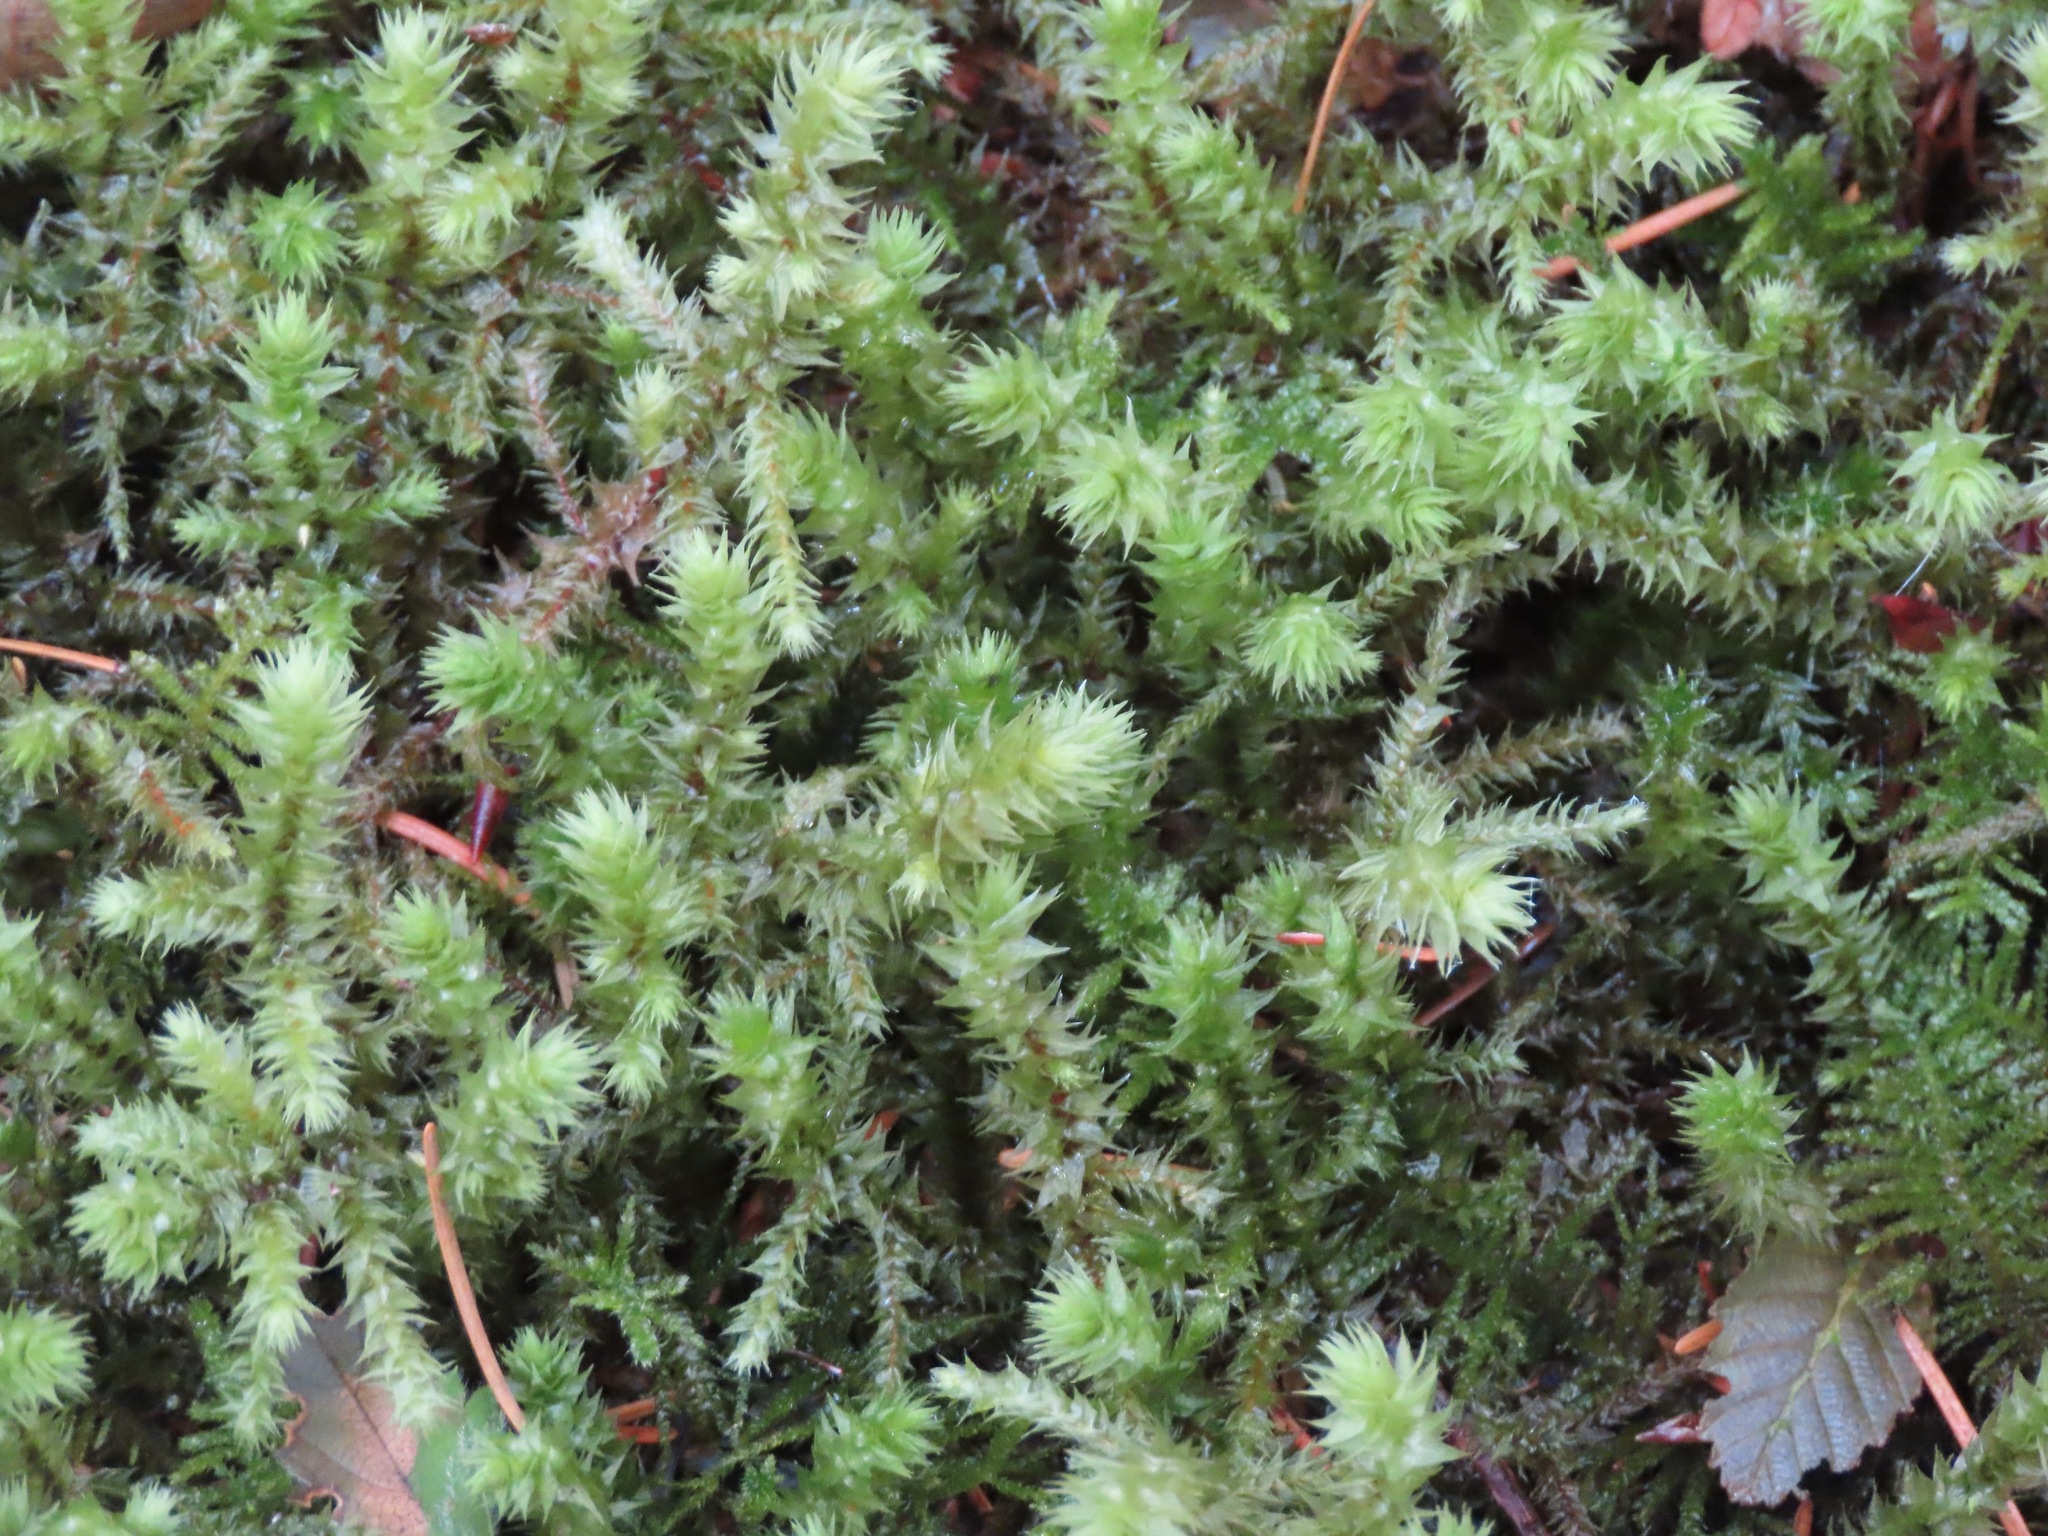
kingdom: Plantae
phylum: Bryophyta
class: Bryopsida
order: Hypnales
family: Hylocomiaceae
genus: Hylocomiadelphus
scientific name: Hylocomiadelphus triquetrus
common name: Rough goose neck moss
